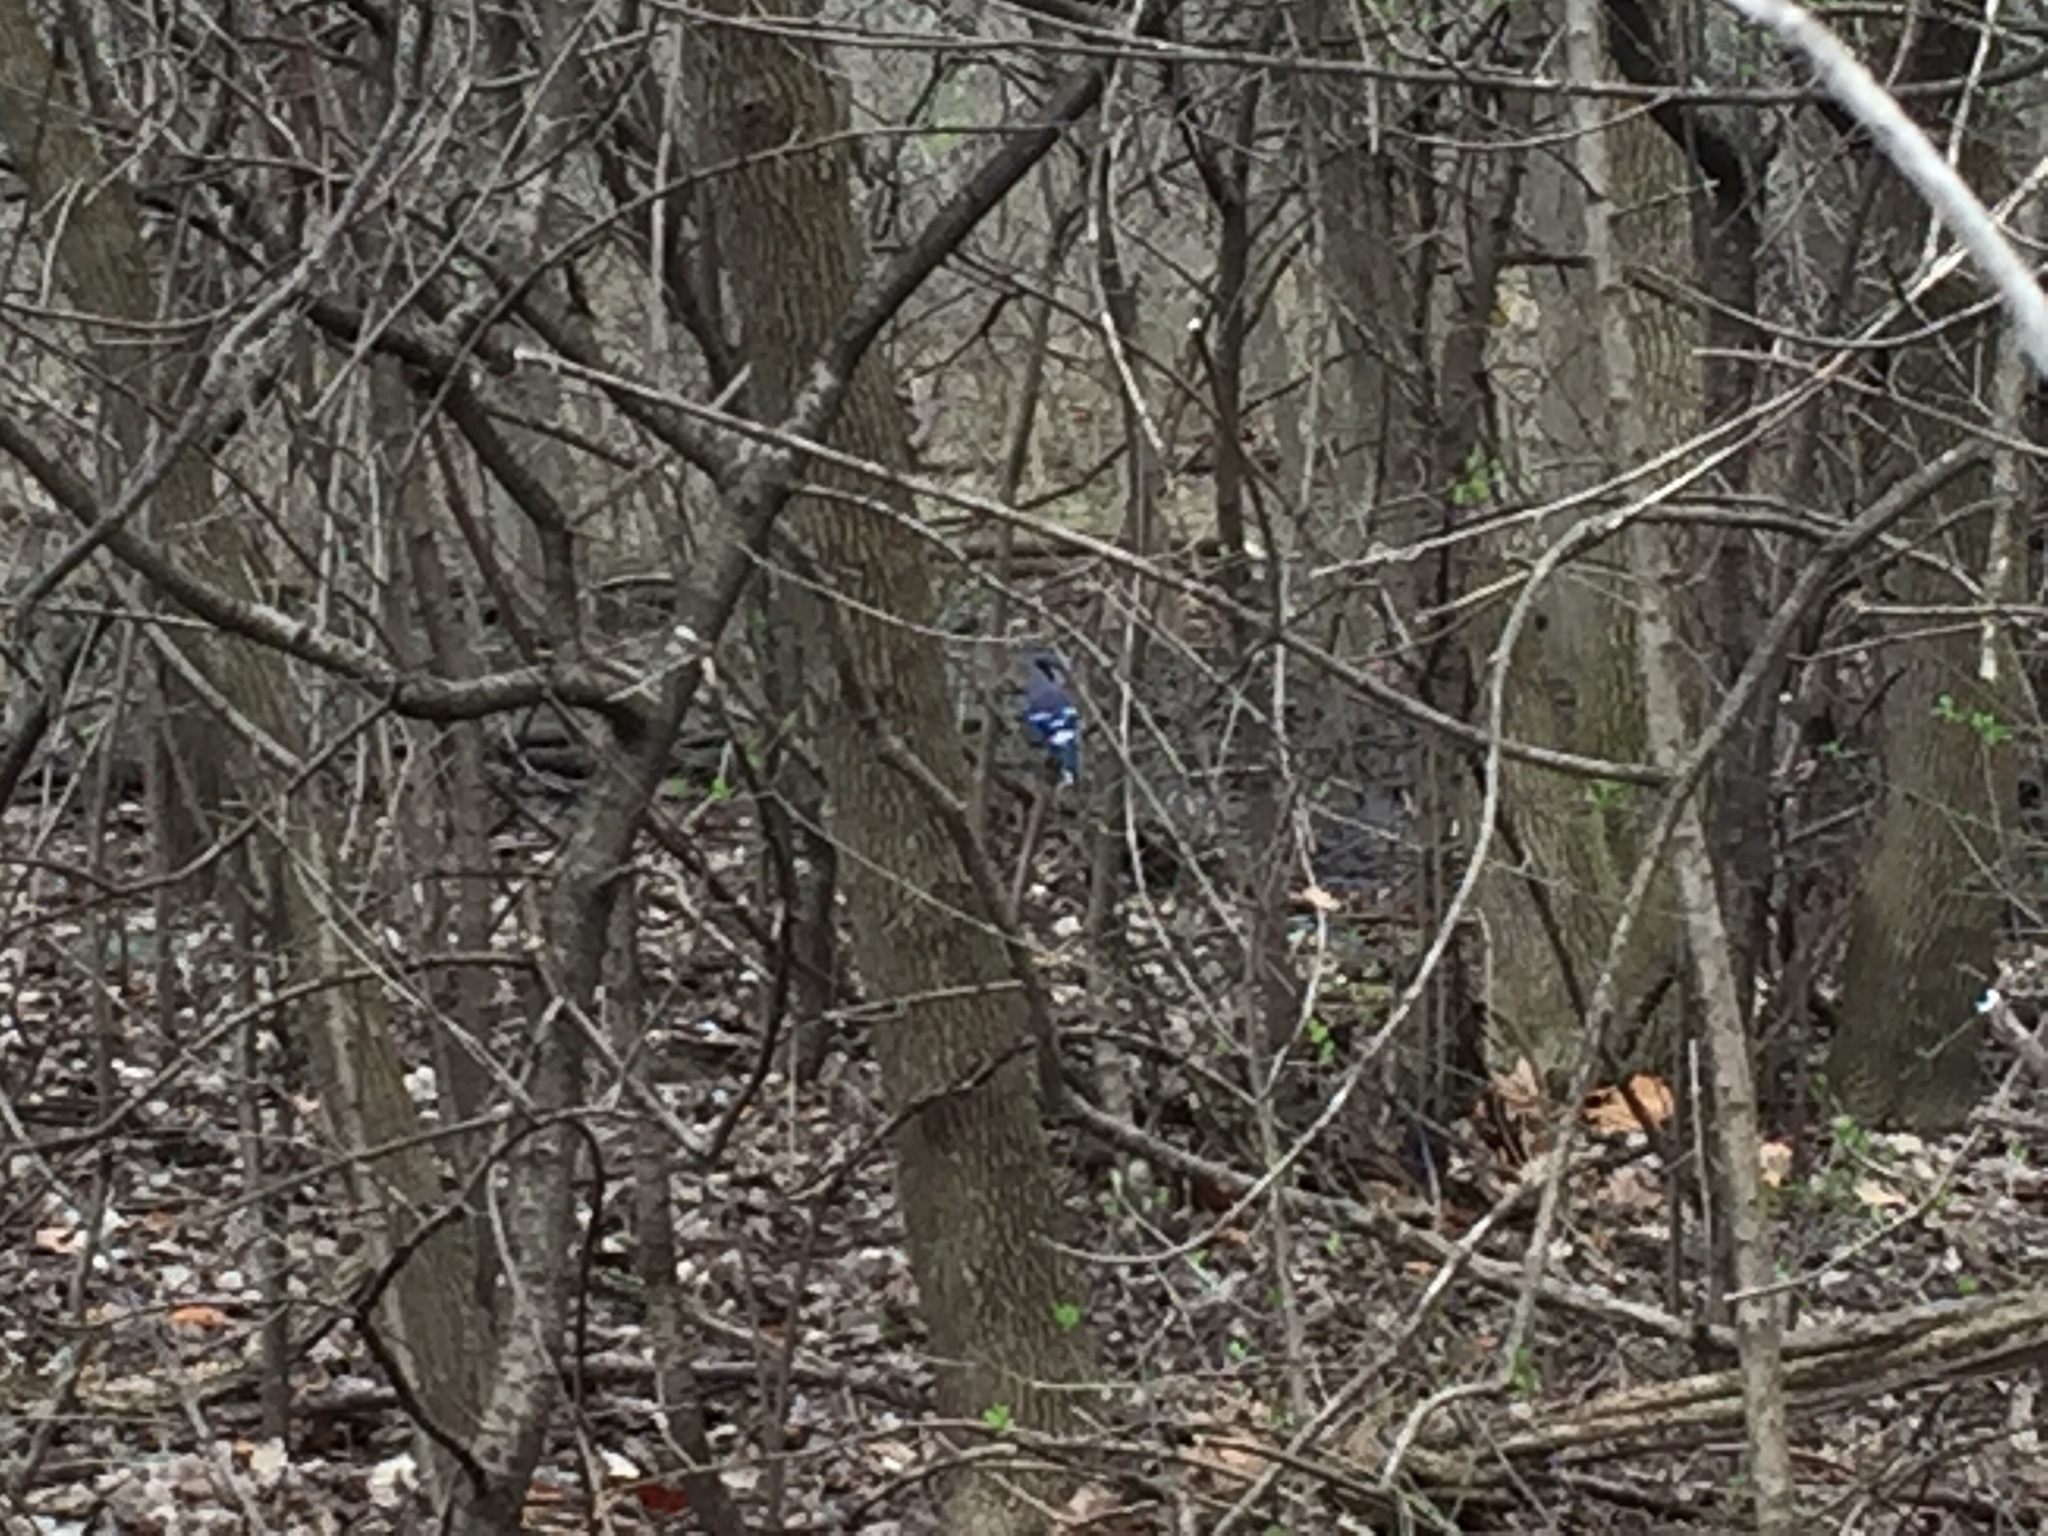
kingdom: Animalia
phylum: Chordata
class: Aves
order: Passeriformes
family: Corvidae
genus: Cyanocitta
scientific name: Cyanocitta cristata
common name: Blue jay
